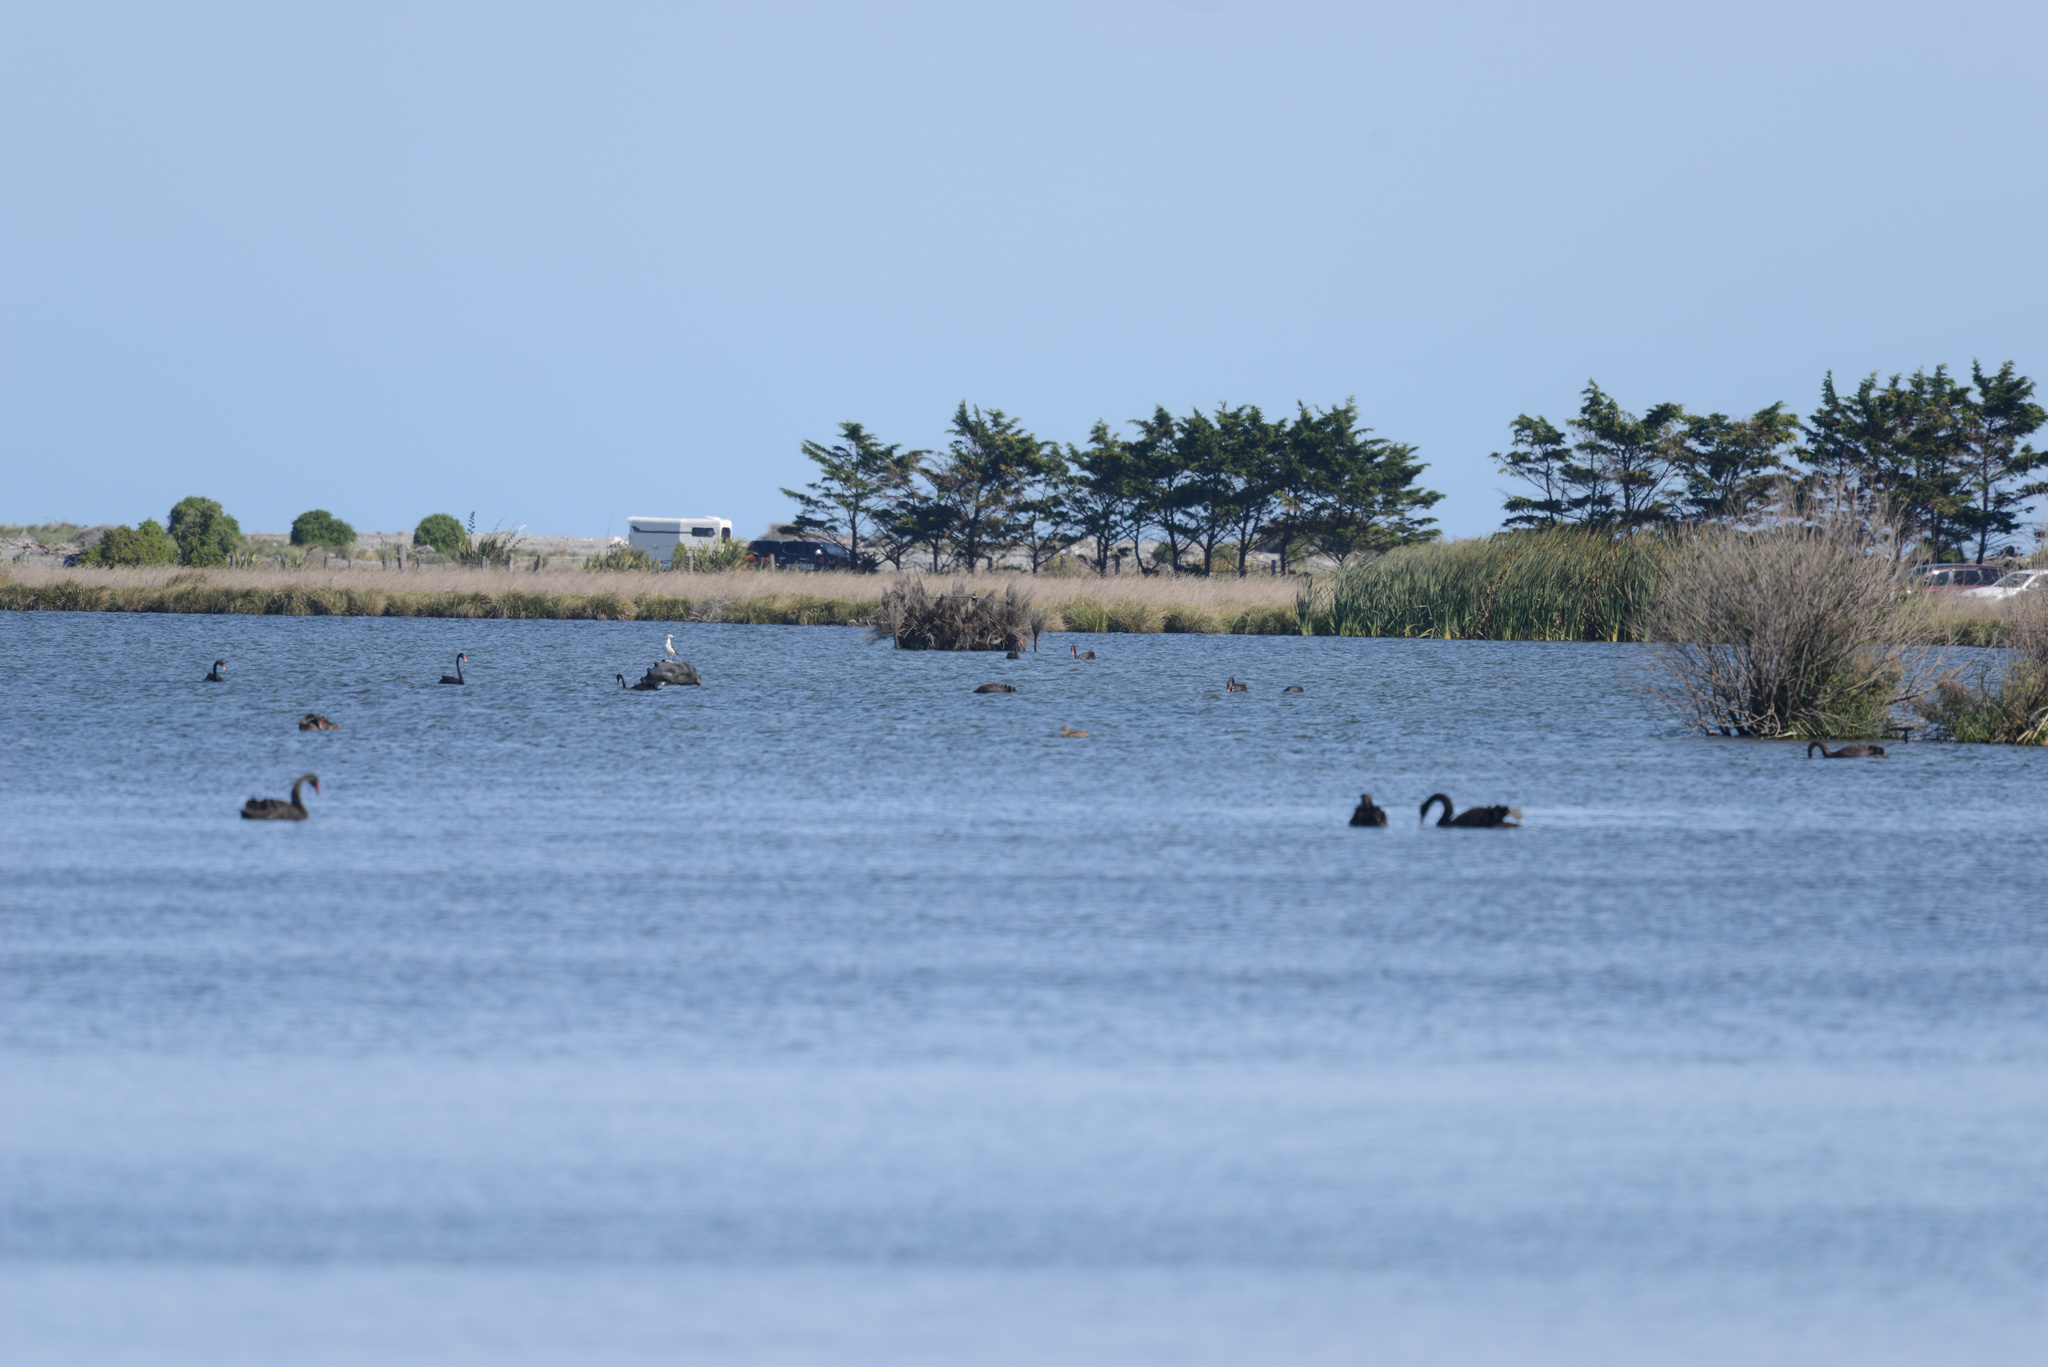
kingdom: Animalia
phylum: Chordata
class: Aves
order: Anseriformes
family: Anatidae
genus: Cygnus
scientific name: Cygnus atratus
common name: Black swan
